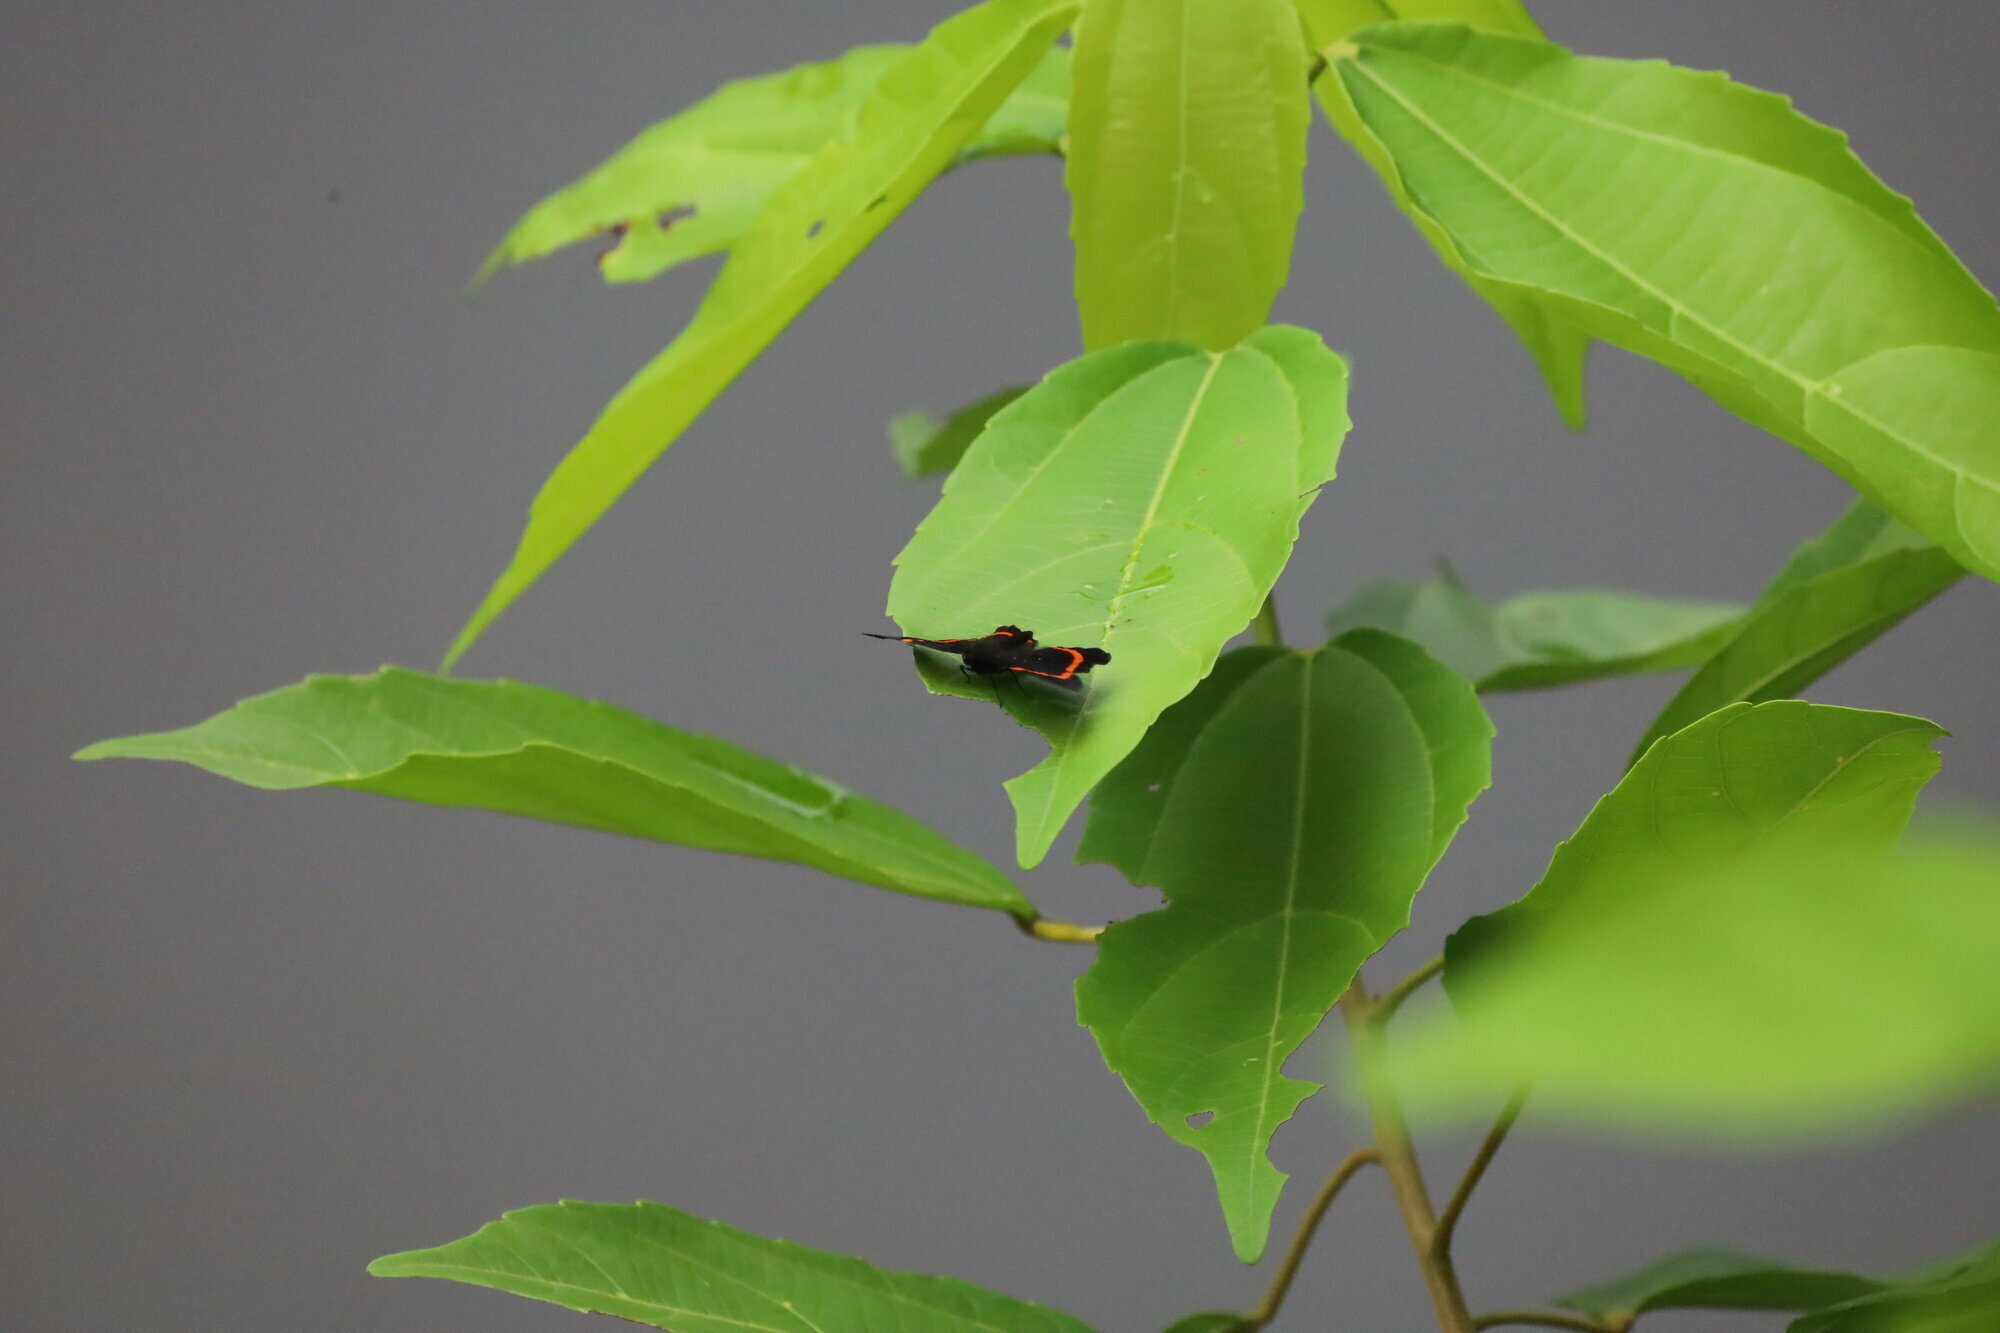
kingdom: Animalia
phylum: Arthropoda
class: Insecta
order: Lepidoptera
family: Riodinidae
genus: Riodina
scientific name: Riodina lysippus
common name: Lysippus metalmark
